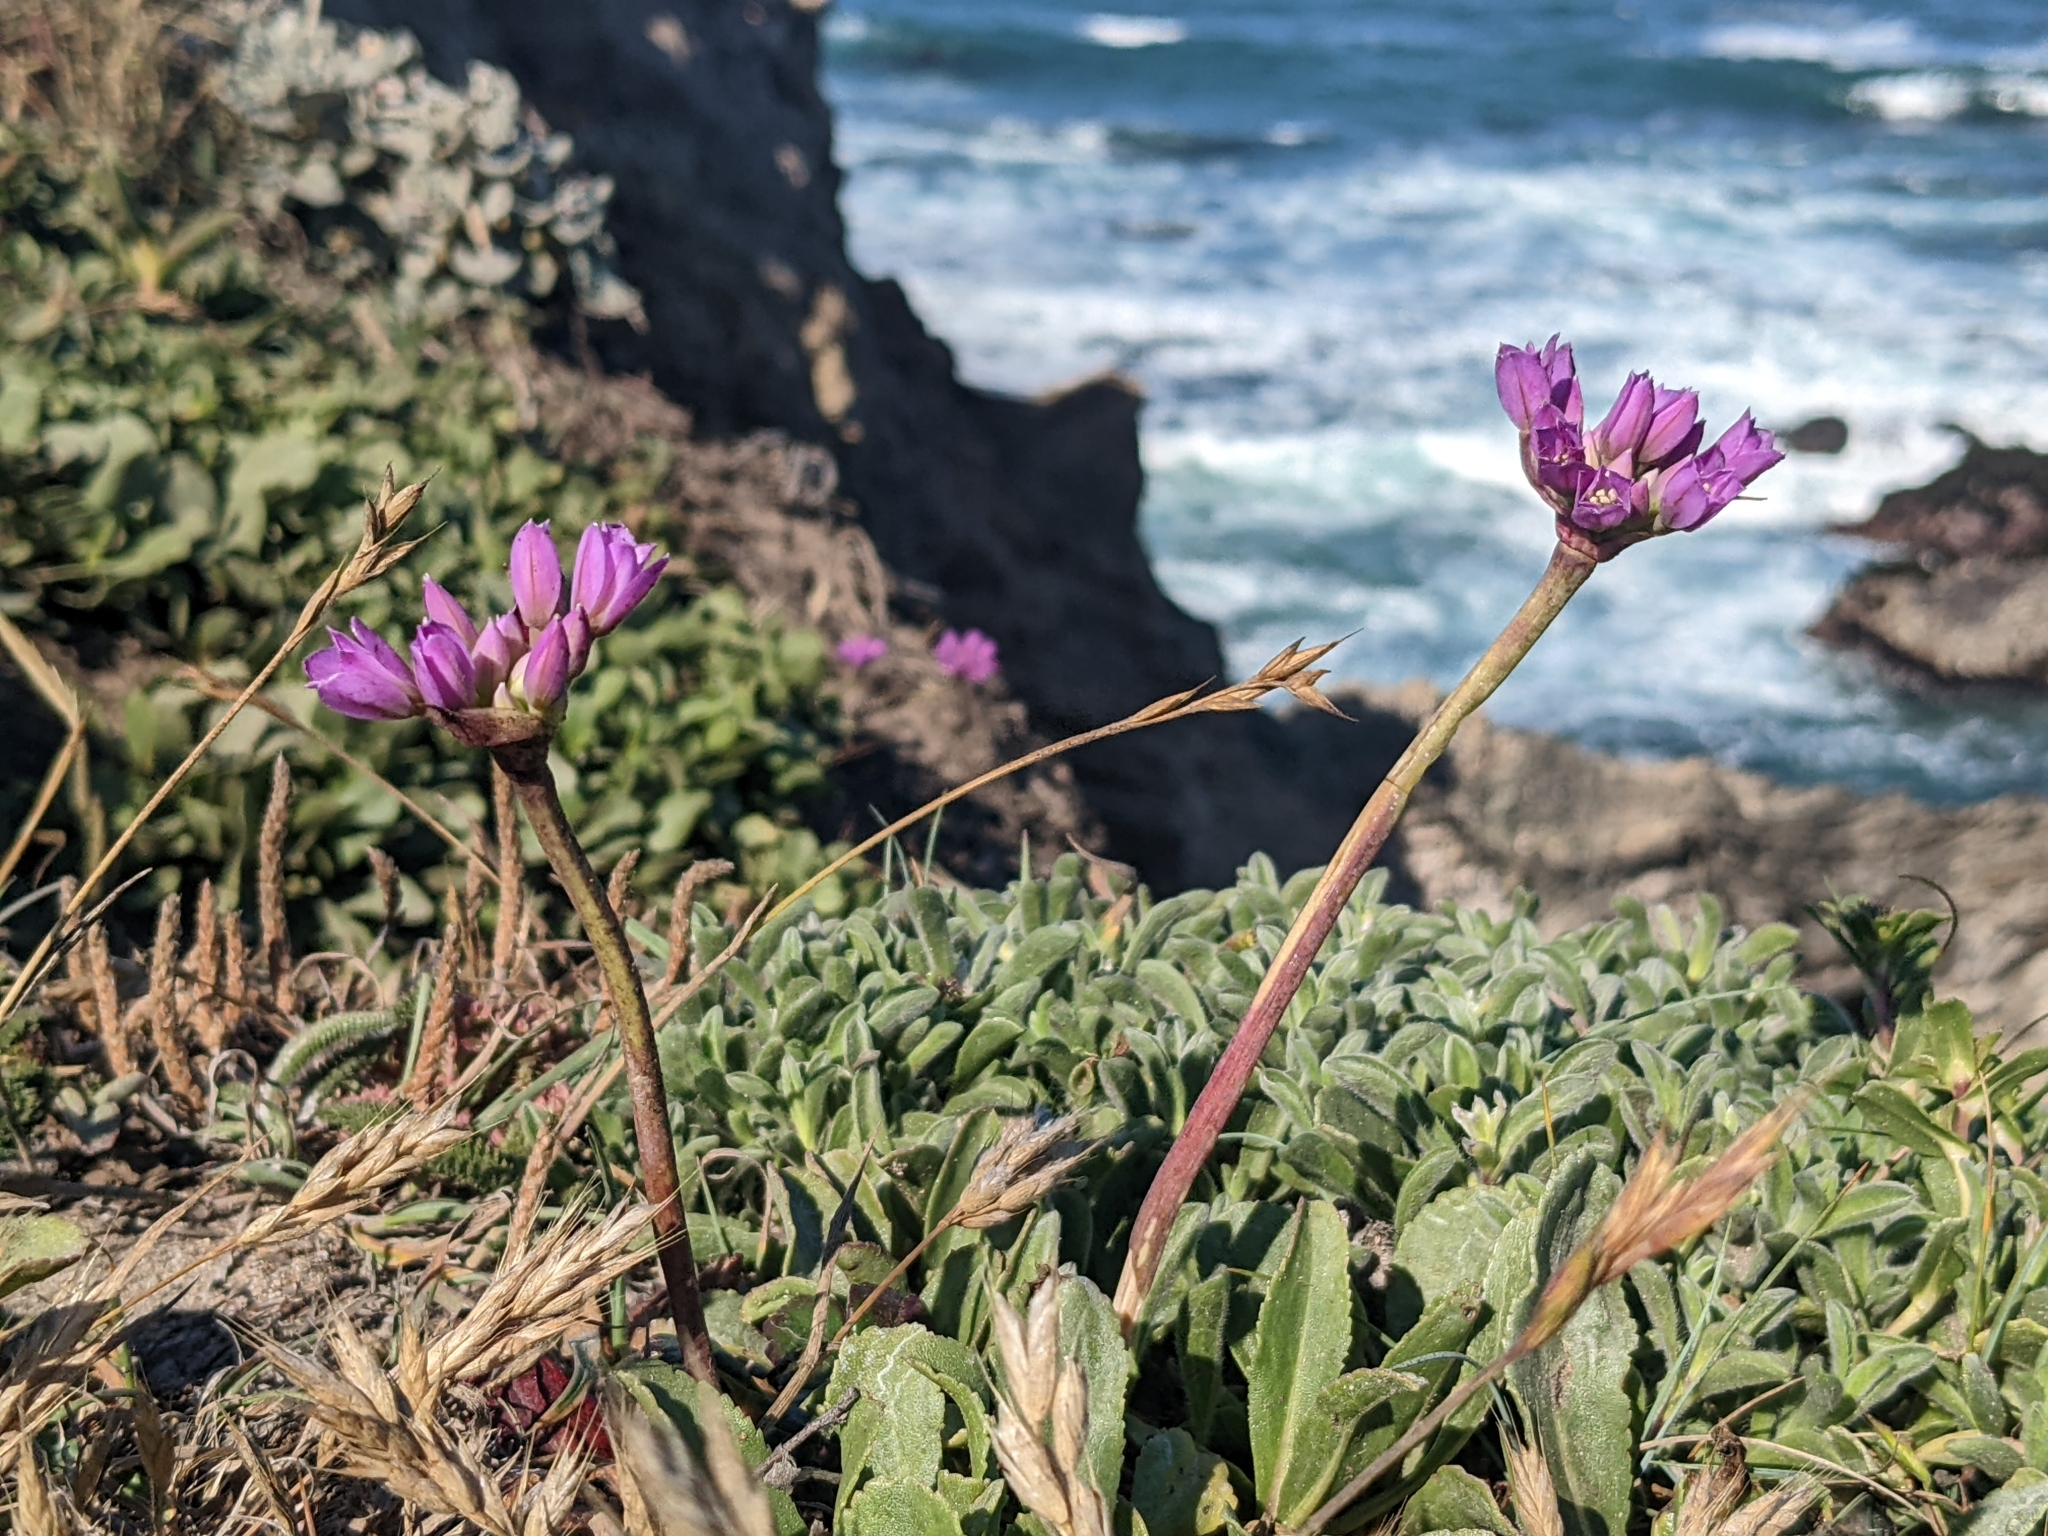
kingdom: Plantae
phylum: Tracheophyta
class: Liliopsida
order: Asparagales
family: Amaryllidaceae
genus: Allium
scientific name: Allium dichlamydeum
